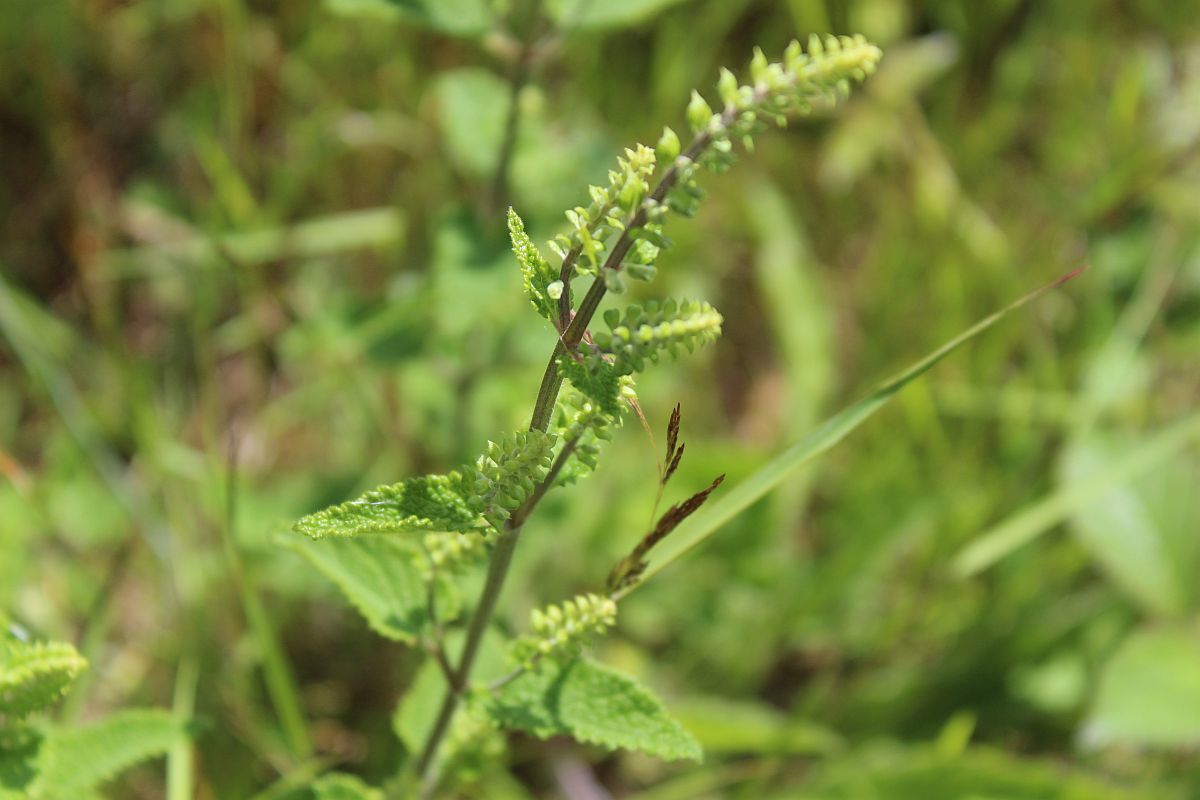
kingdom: Plantae
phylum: Tracheophyta
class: Magnoliopsida
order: Lamiales
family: Lamiaceae
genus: Teucrium
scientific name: Teucrium scorodonia
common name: Woodland germander
